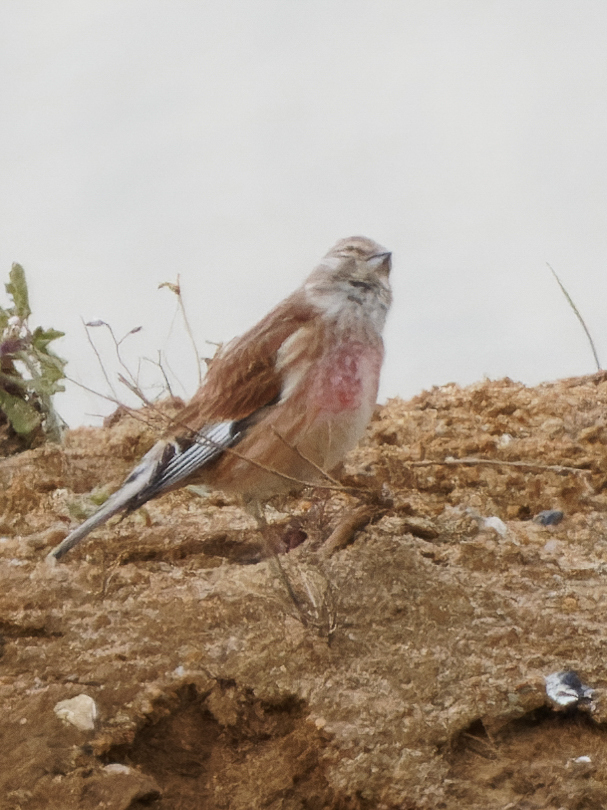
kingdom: Animalia
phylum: Chordata
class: Aves
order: Passeriformes
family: Fringillidae
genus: Linaria
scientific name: Linaria cannabina
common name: Common linnet
